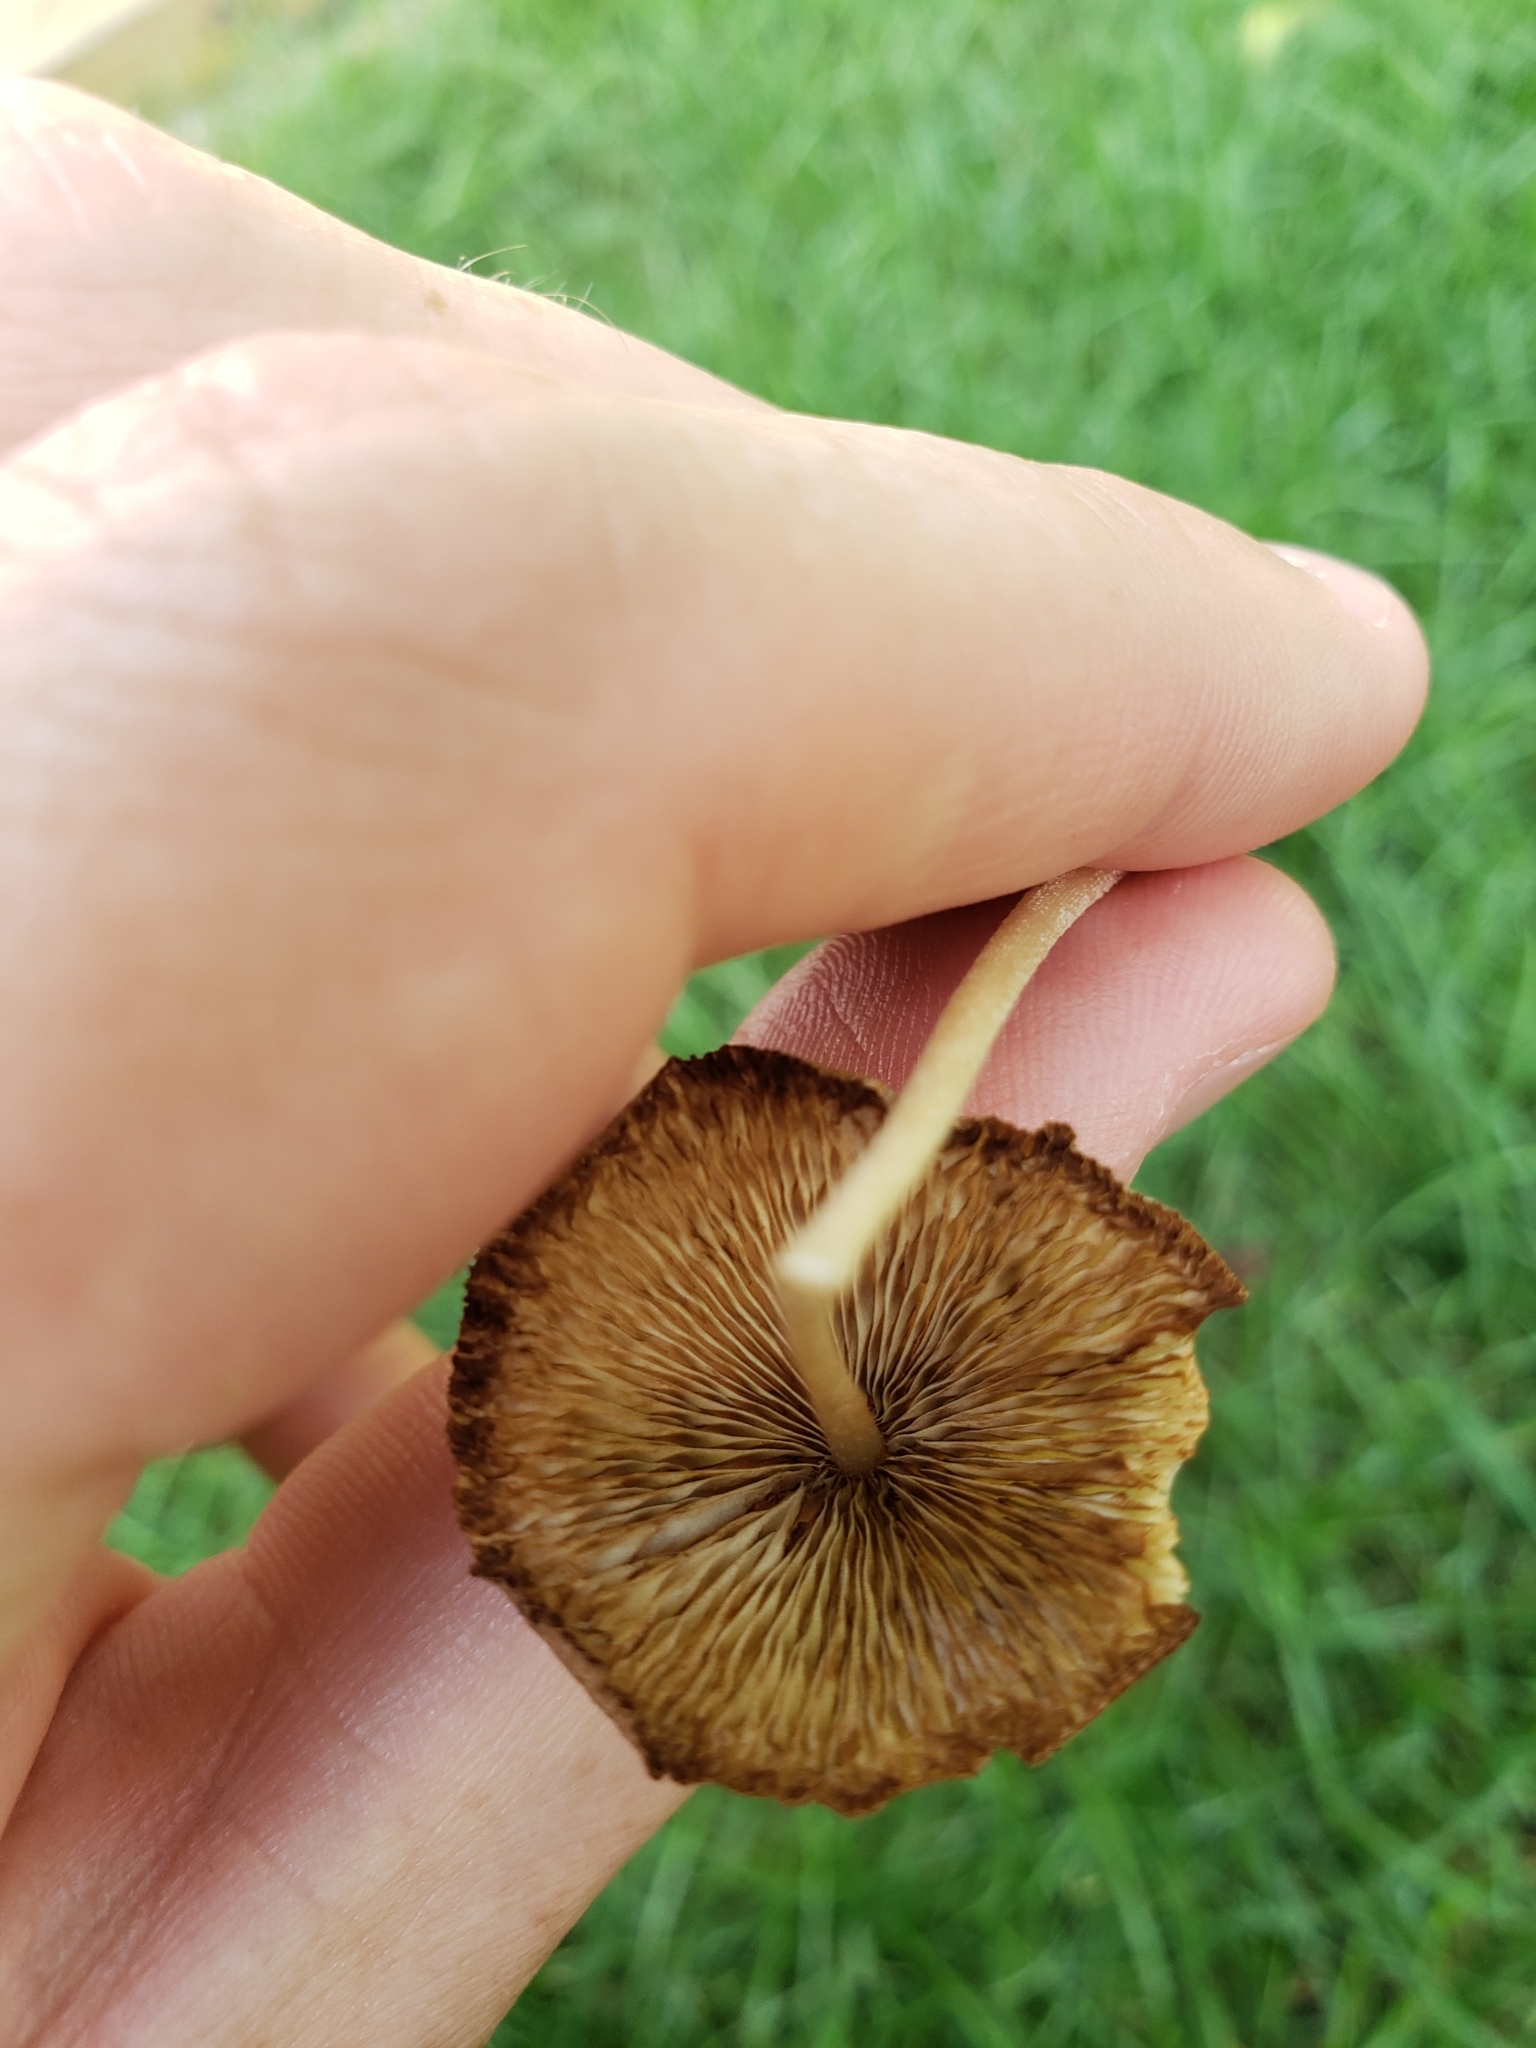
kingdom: Fungi
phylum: Basidiomycota
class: Agaricomycetes
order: Agaricales
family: Bolbitiaceae
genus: Conocybe
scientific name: Conocybe apala
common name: Milky conecap
